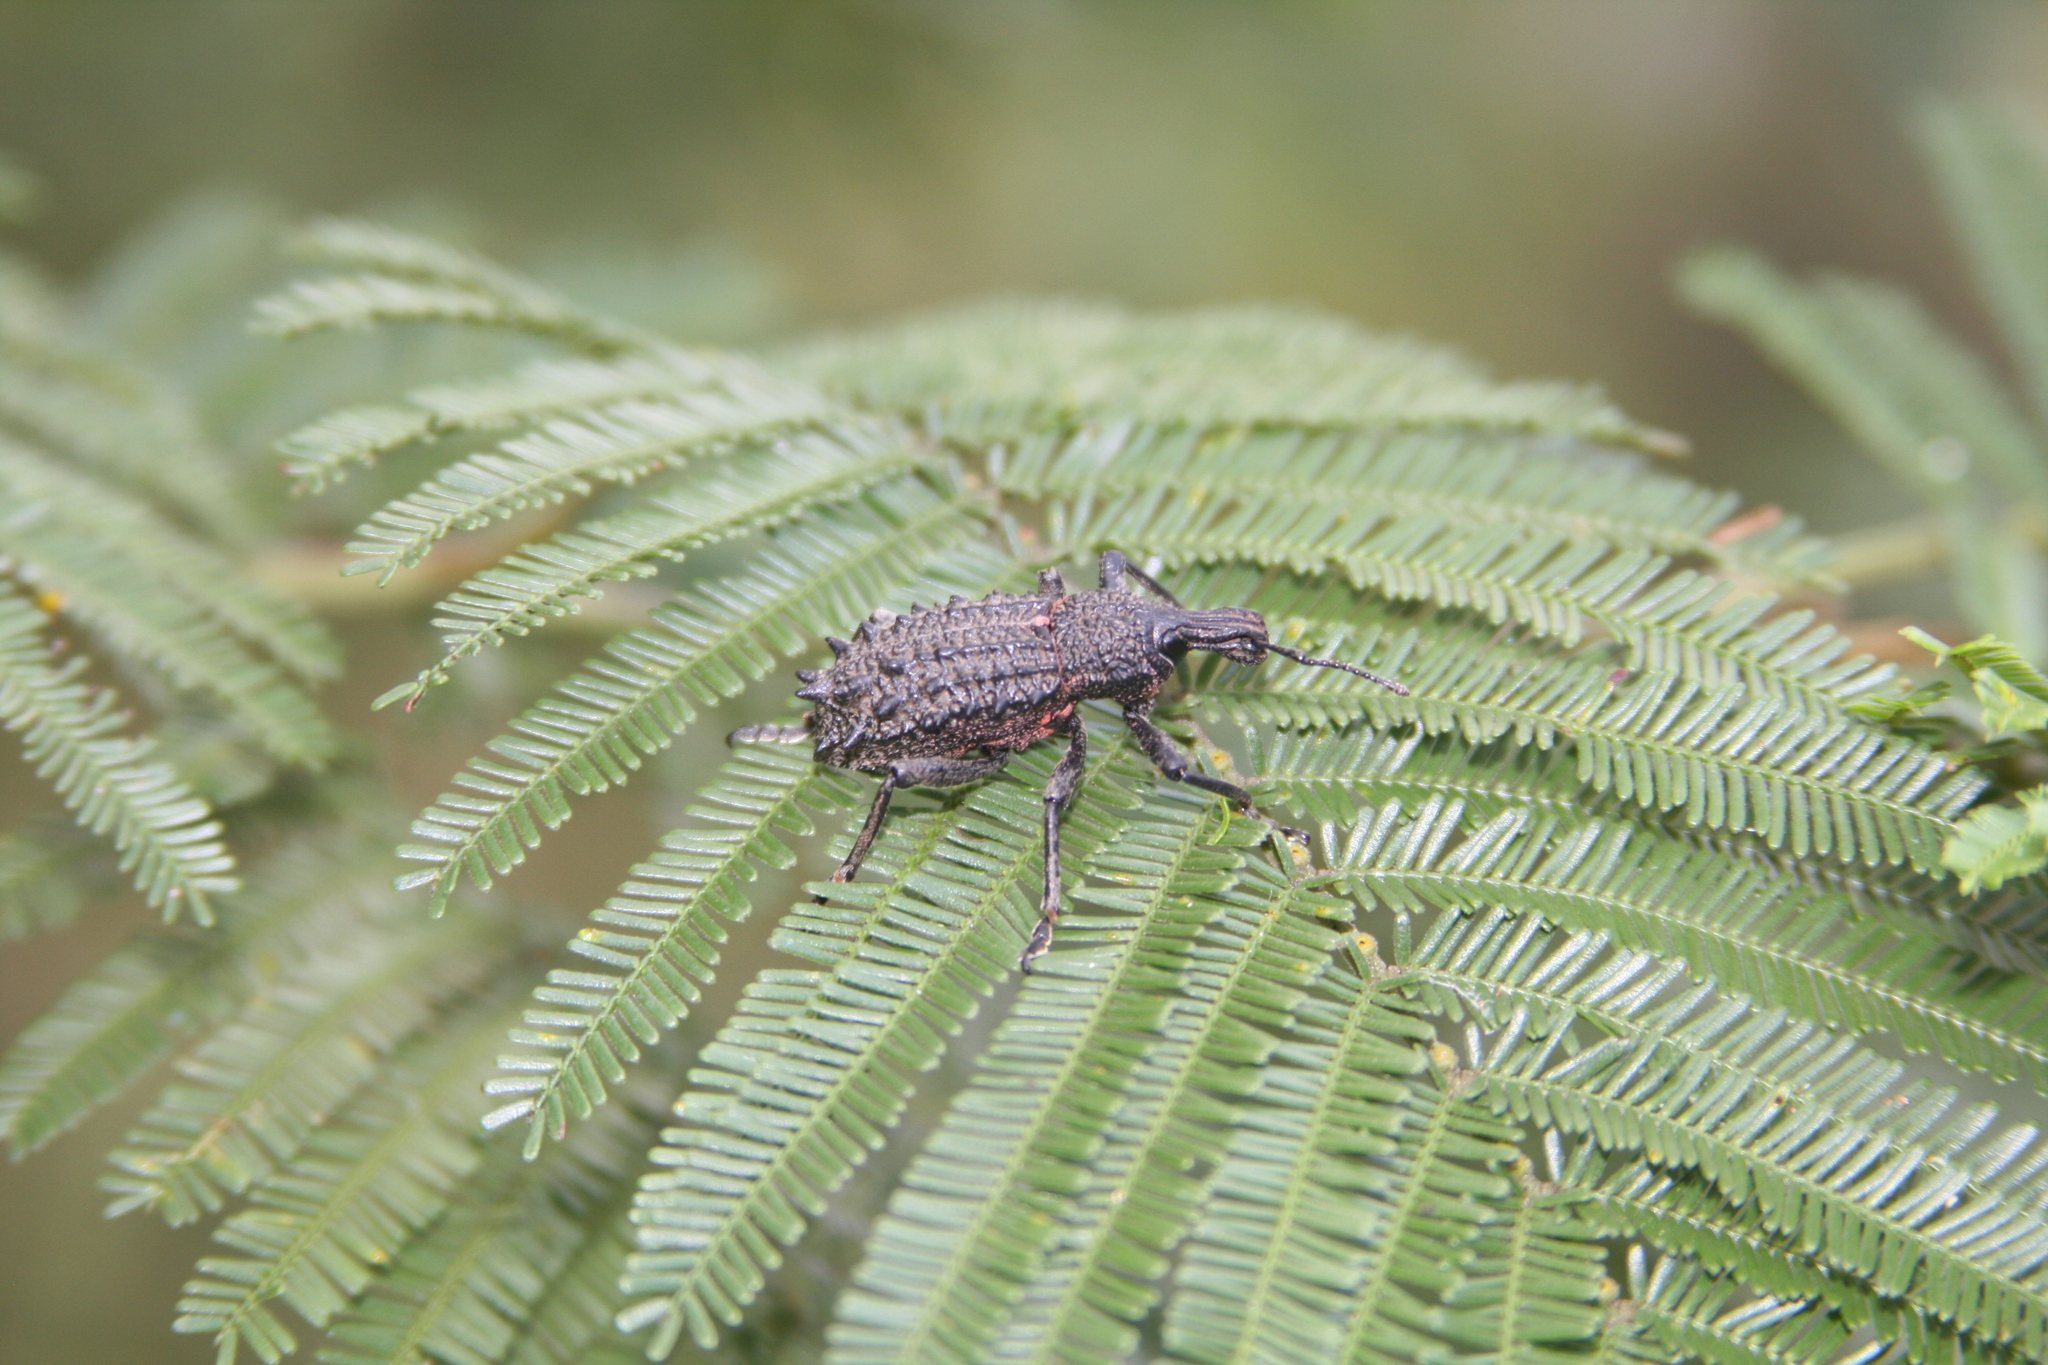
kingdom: Animalia
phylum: Arthropoda
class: Insecta
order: Coleoptera
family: Curculionidae
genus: Leptopius
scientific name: Leptopius duponti
